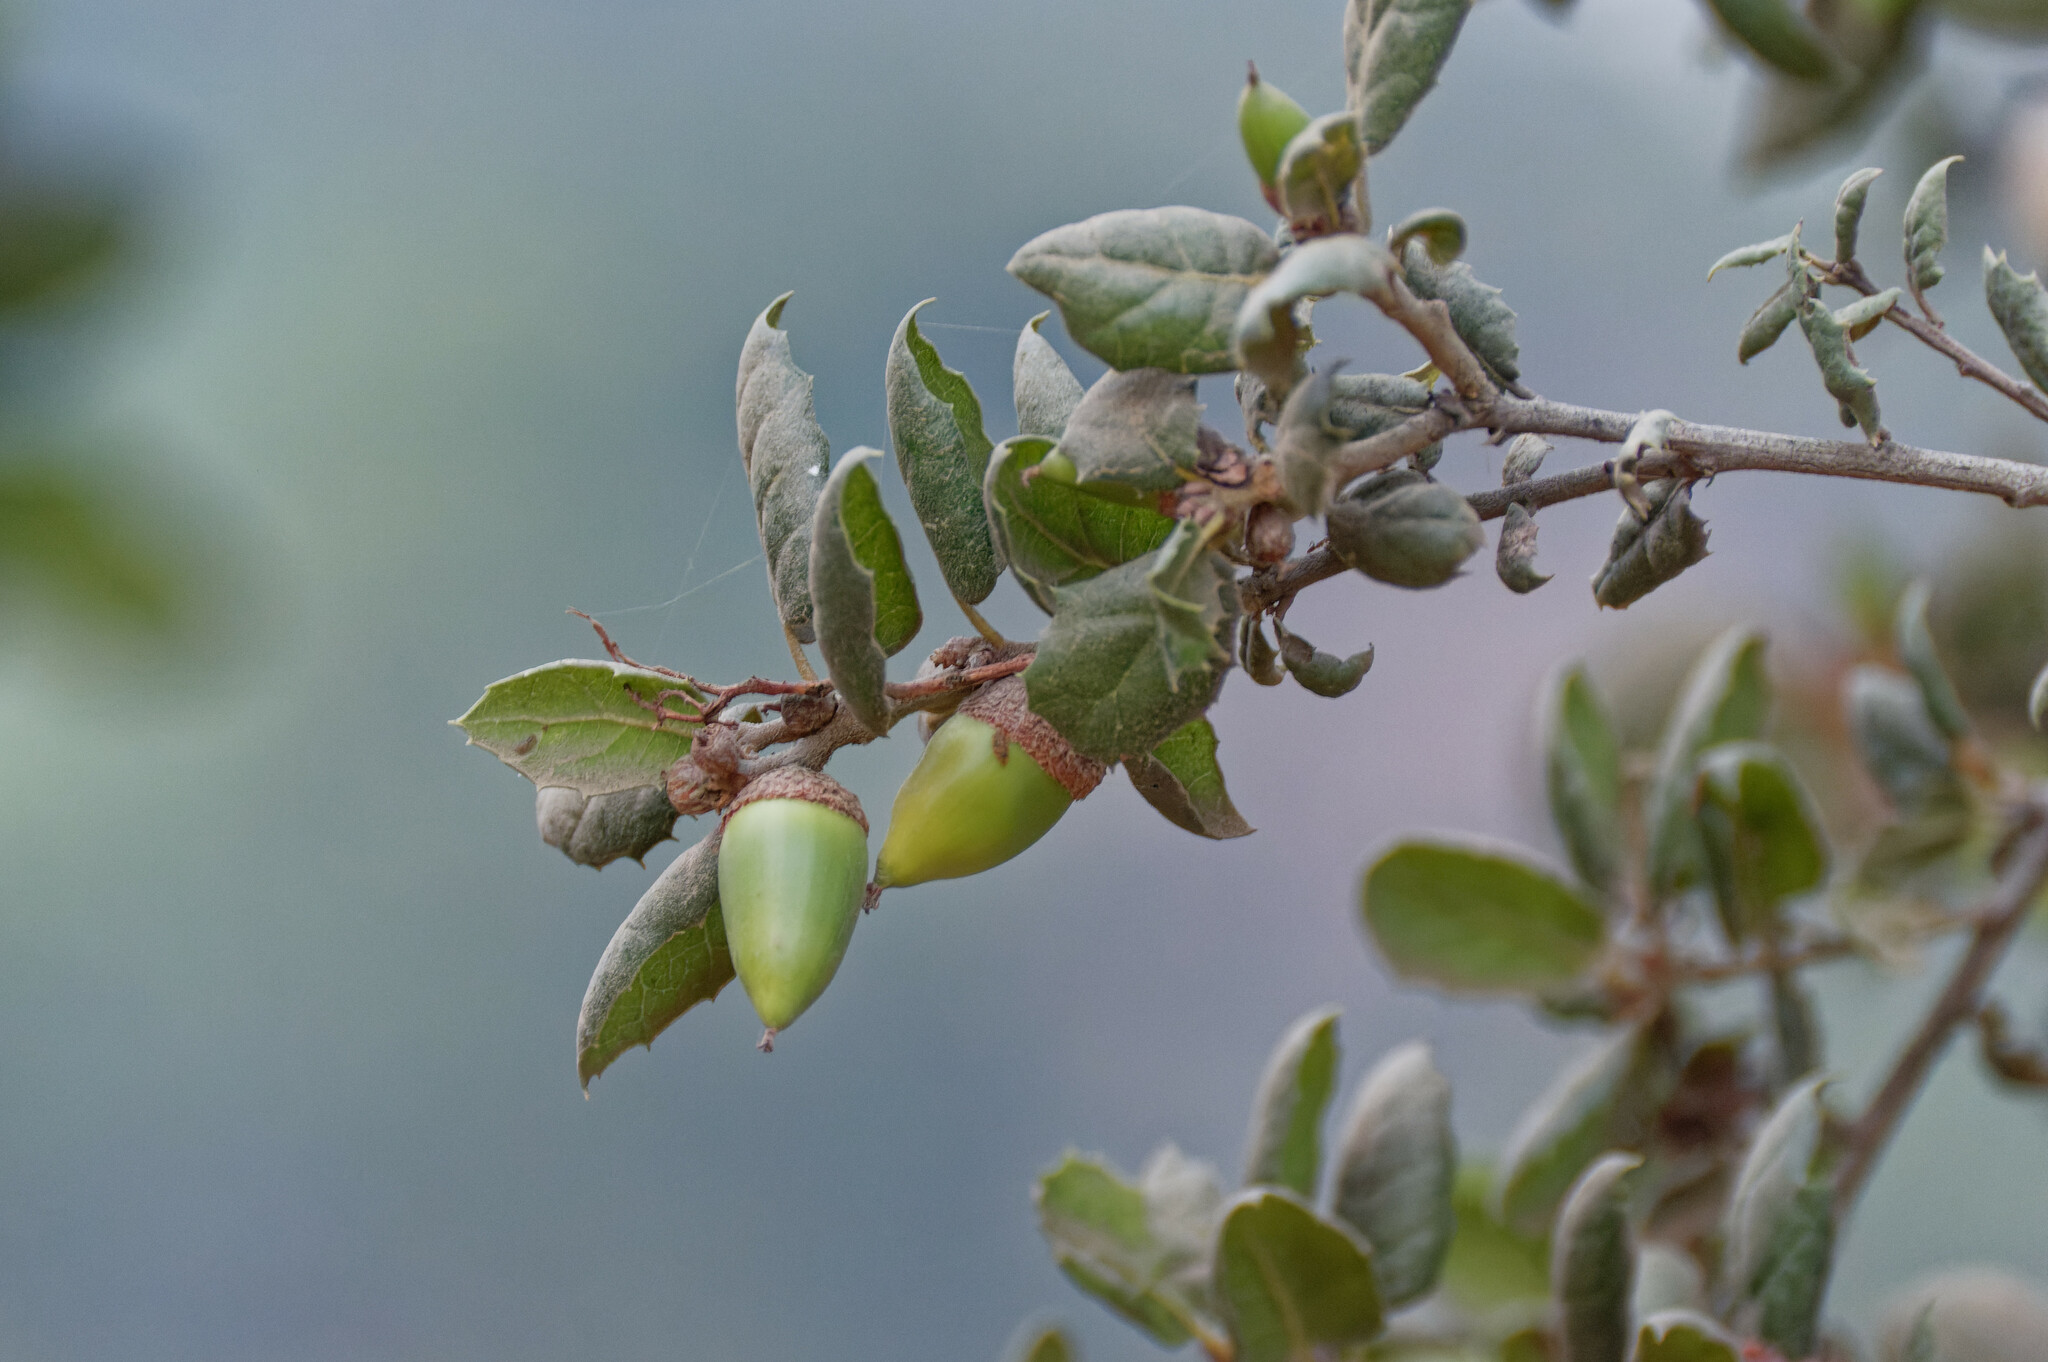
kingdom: Plantae
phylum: Tracheophyta
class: Magnoliopsida
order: Fagales
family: Fagaceae
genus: Quercus
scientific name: Quercus agrifolia
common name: California live oak
